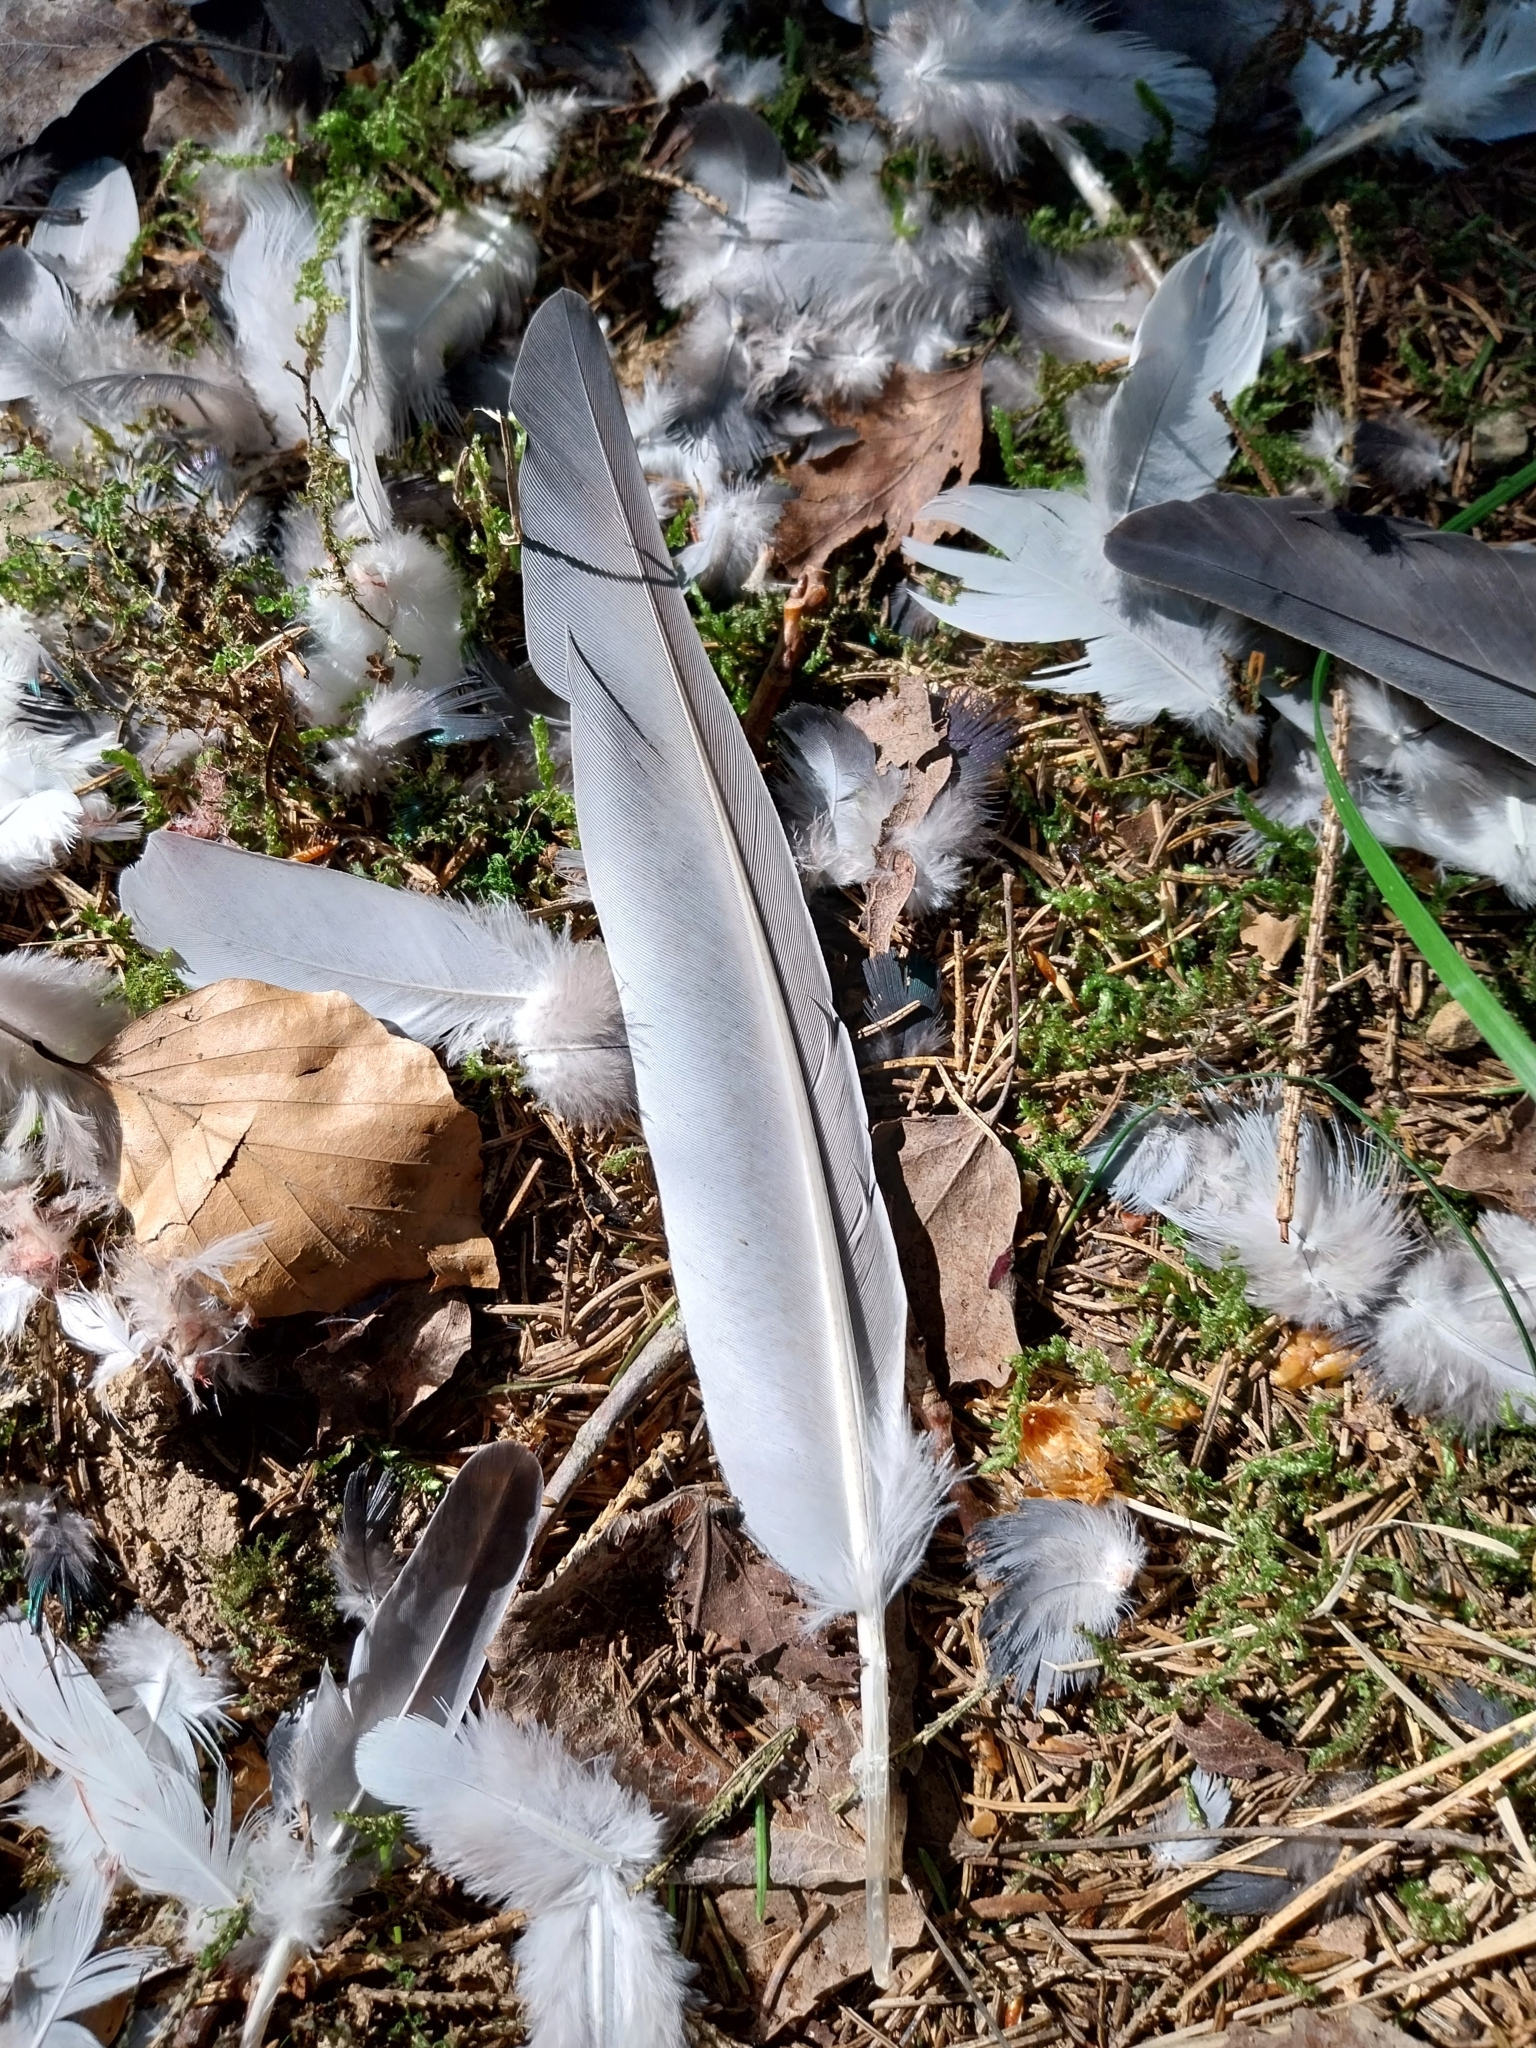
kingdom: Animalia
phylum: Chordata
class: Aves
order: Columbiformes
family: Columbidae
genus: Columba
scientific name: Columba livia
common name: Rock pigeon
